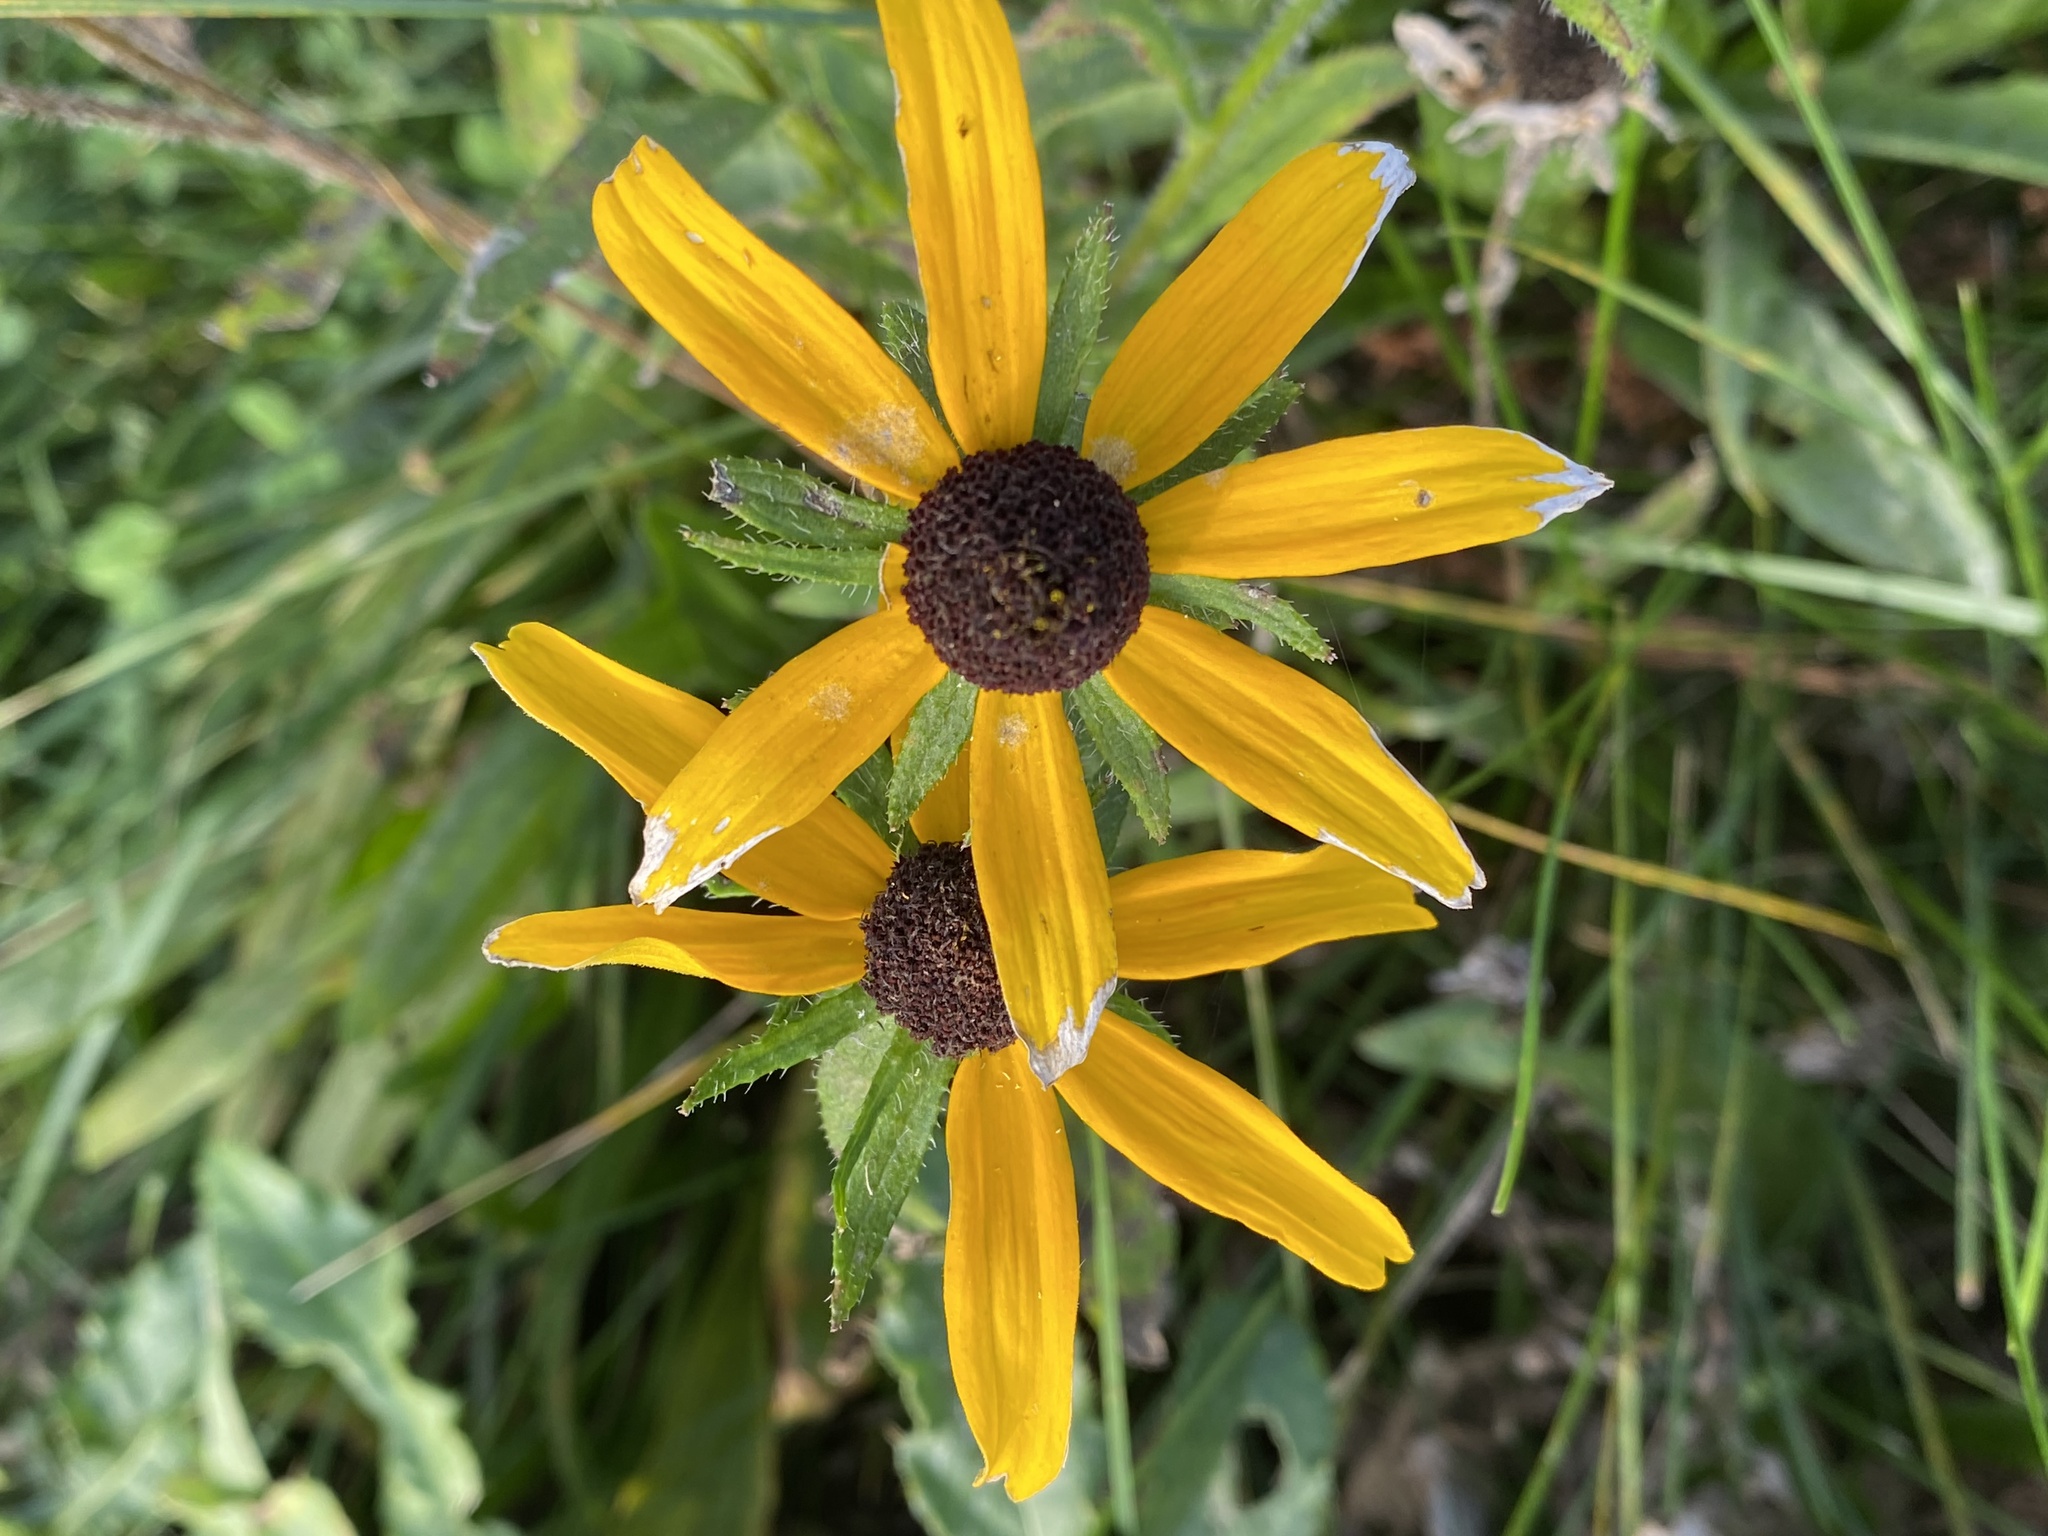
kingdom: Plantae
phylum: Tracheophyta
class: Magnoliopsida
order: Asterales
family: Asteraceae
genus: Rudbeckia
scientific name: Rudbeckia hirta
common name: Black-eyed-susan
